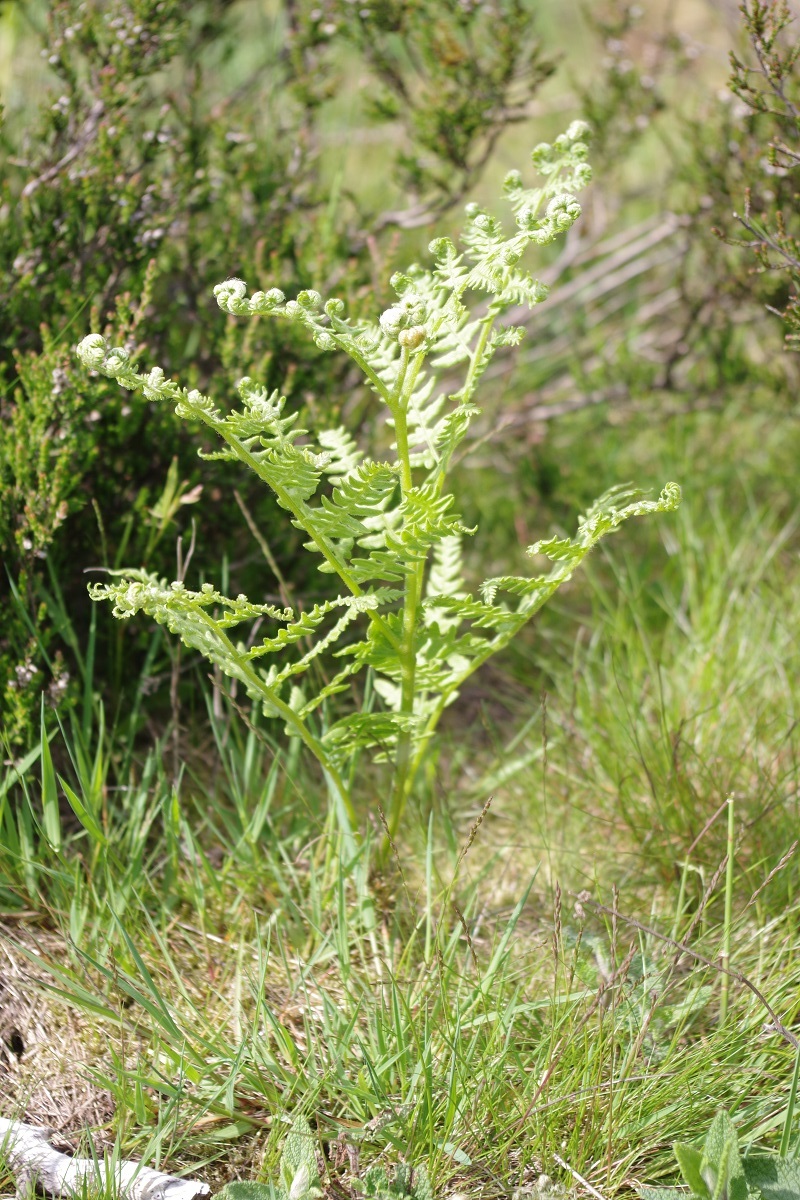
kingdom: Plantae
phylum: Tracheophyta
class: Polypodiopsida
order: Polypodiales
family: Dennstaedtiaceae
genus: Pteridium
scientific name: Pteridium aquilinum
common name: Bracken
